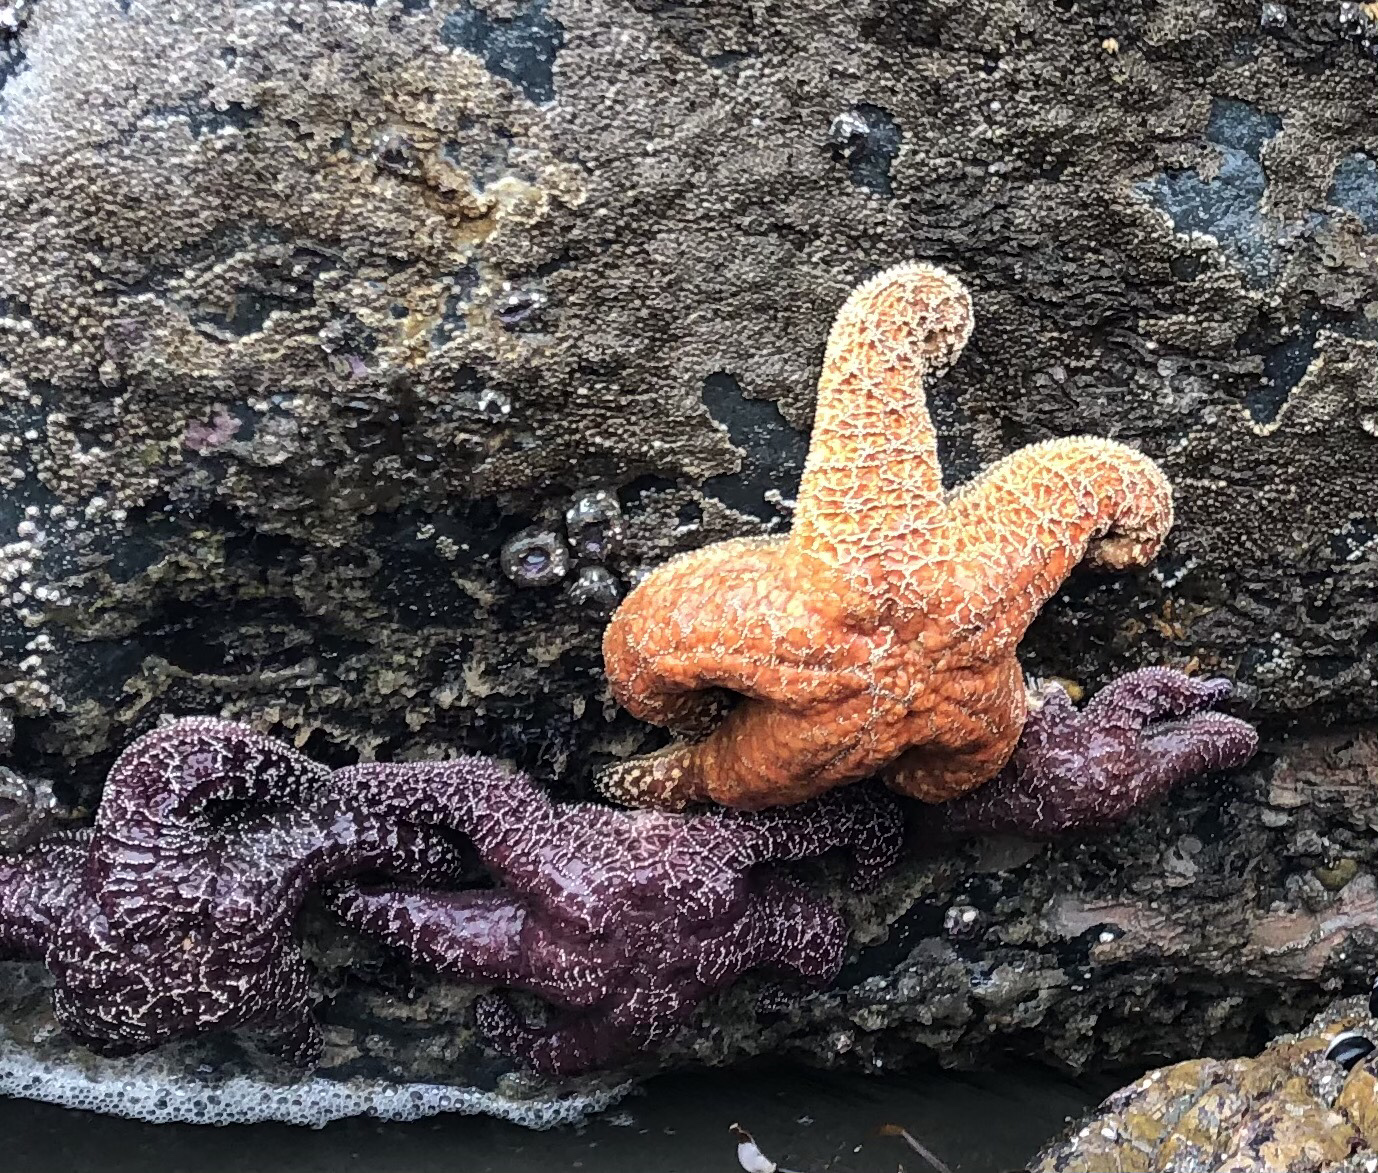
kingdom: Animalia
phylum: Echinodermata
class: Asteroidea
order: Forcipulatida
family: Asteriidae
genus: Pisaster
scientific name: Pisaster ochraceus
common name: Ochre stars
